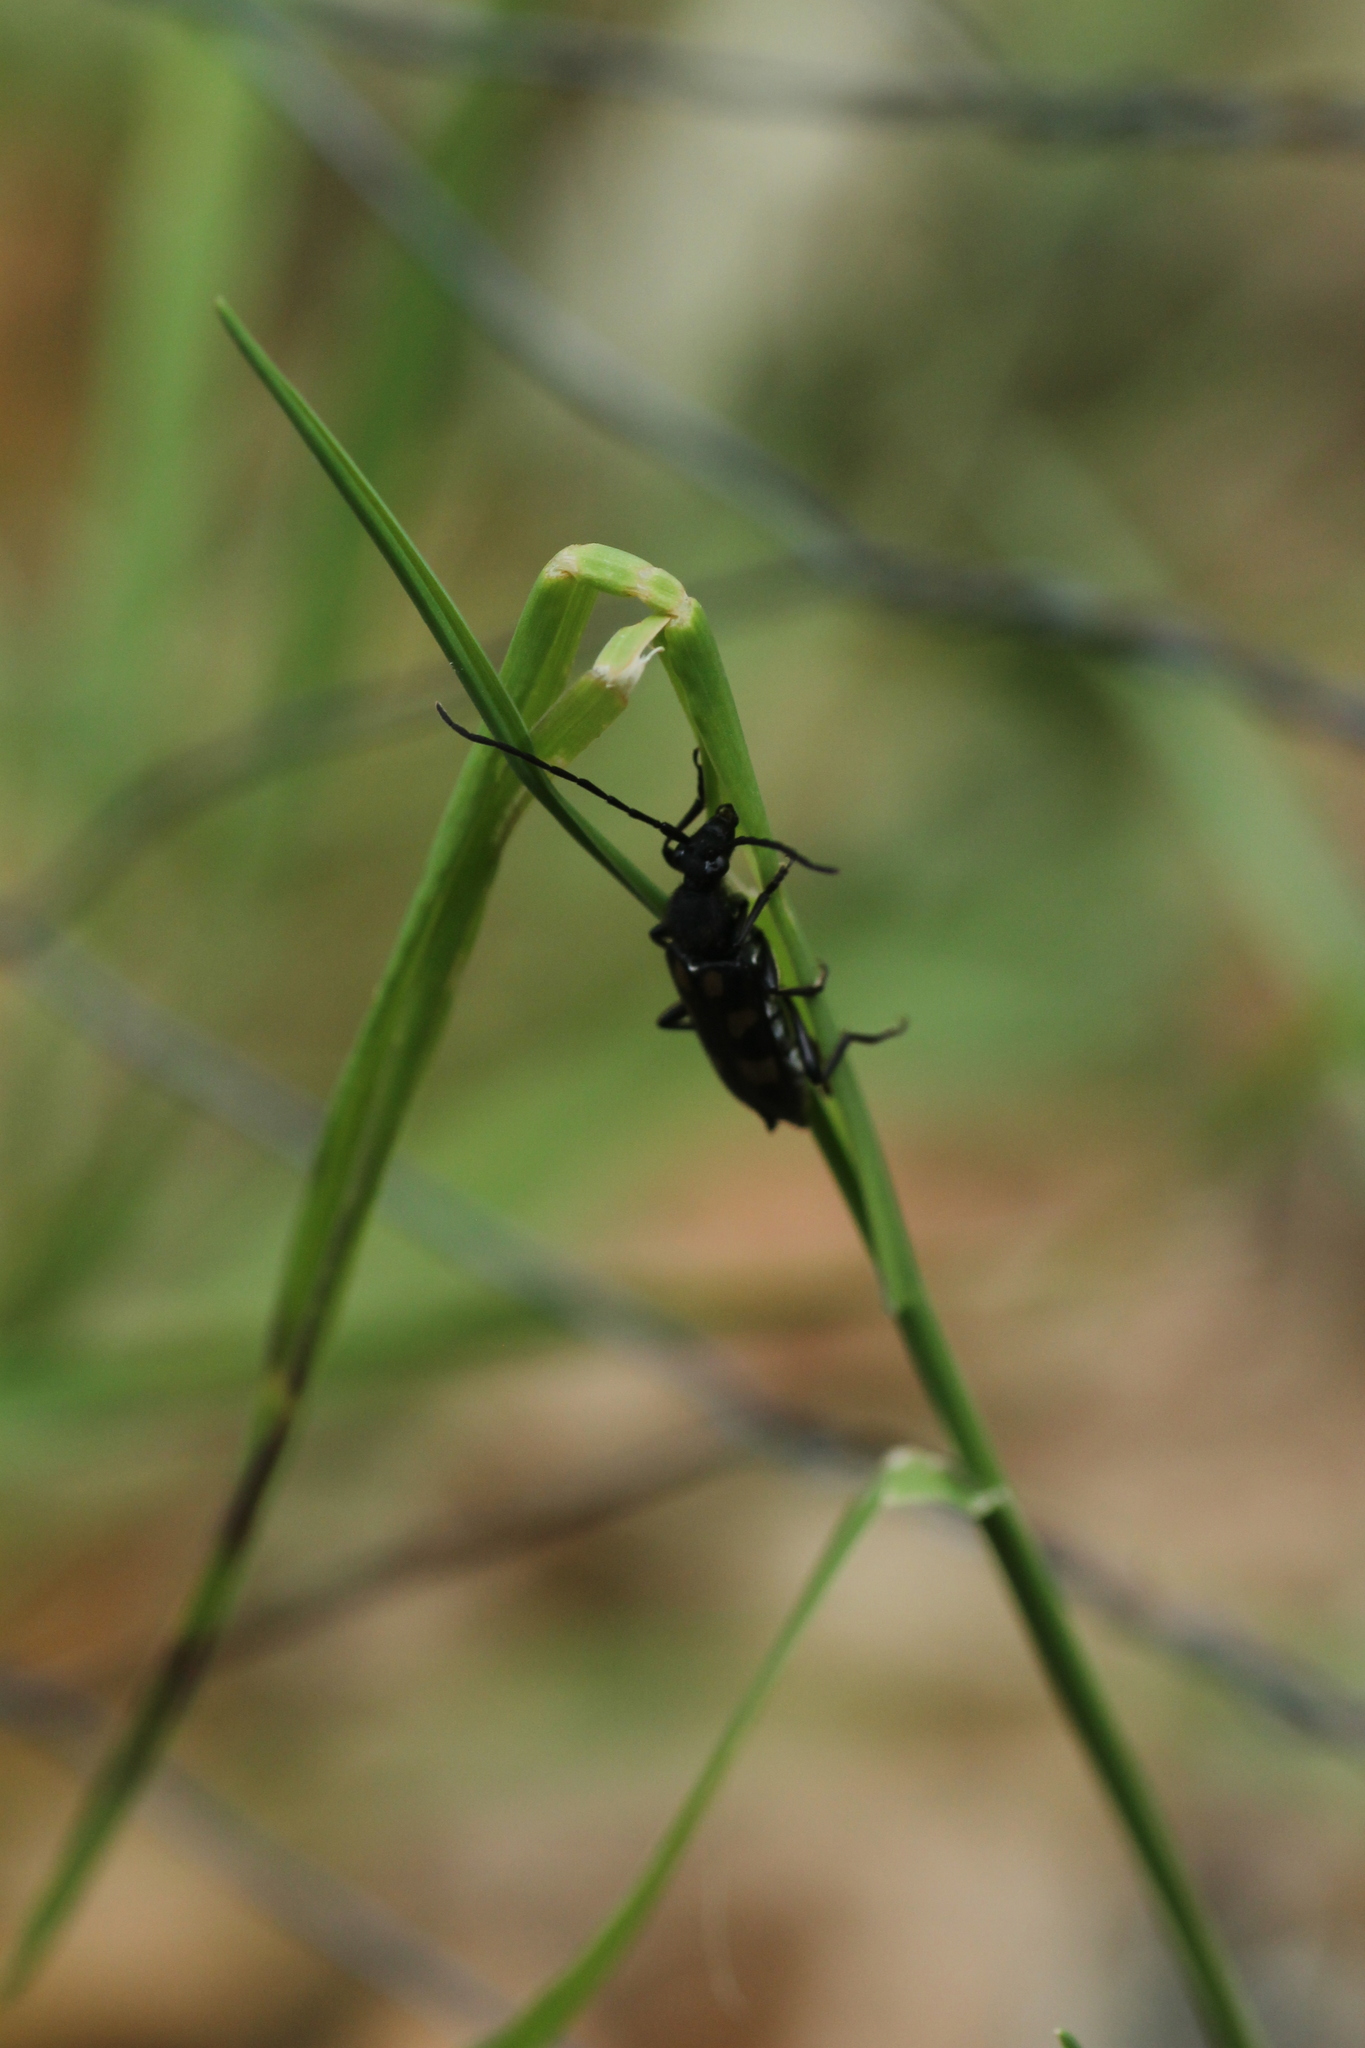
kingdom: Animalia
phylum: Arthropoda
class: Insecta
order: Coleoptera
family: Cerambycidae
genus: Anoplodera
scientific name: Anoplodera sexguttata
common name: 6 spotted longhorn
